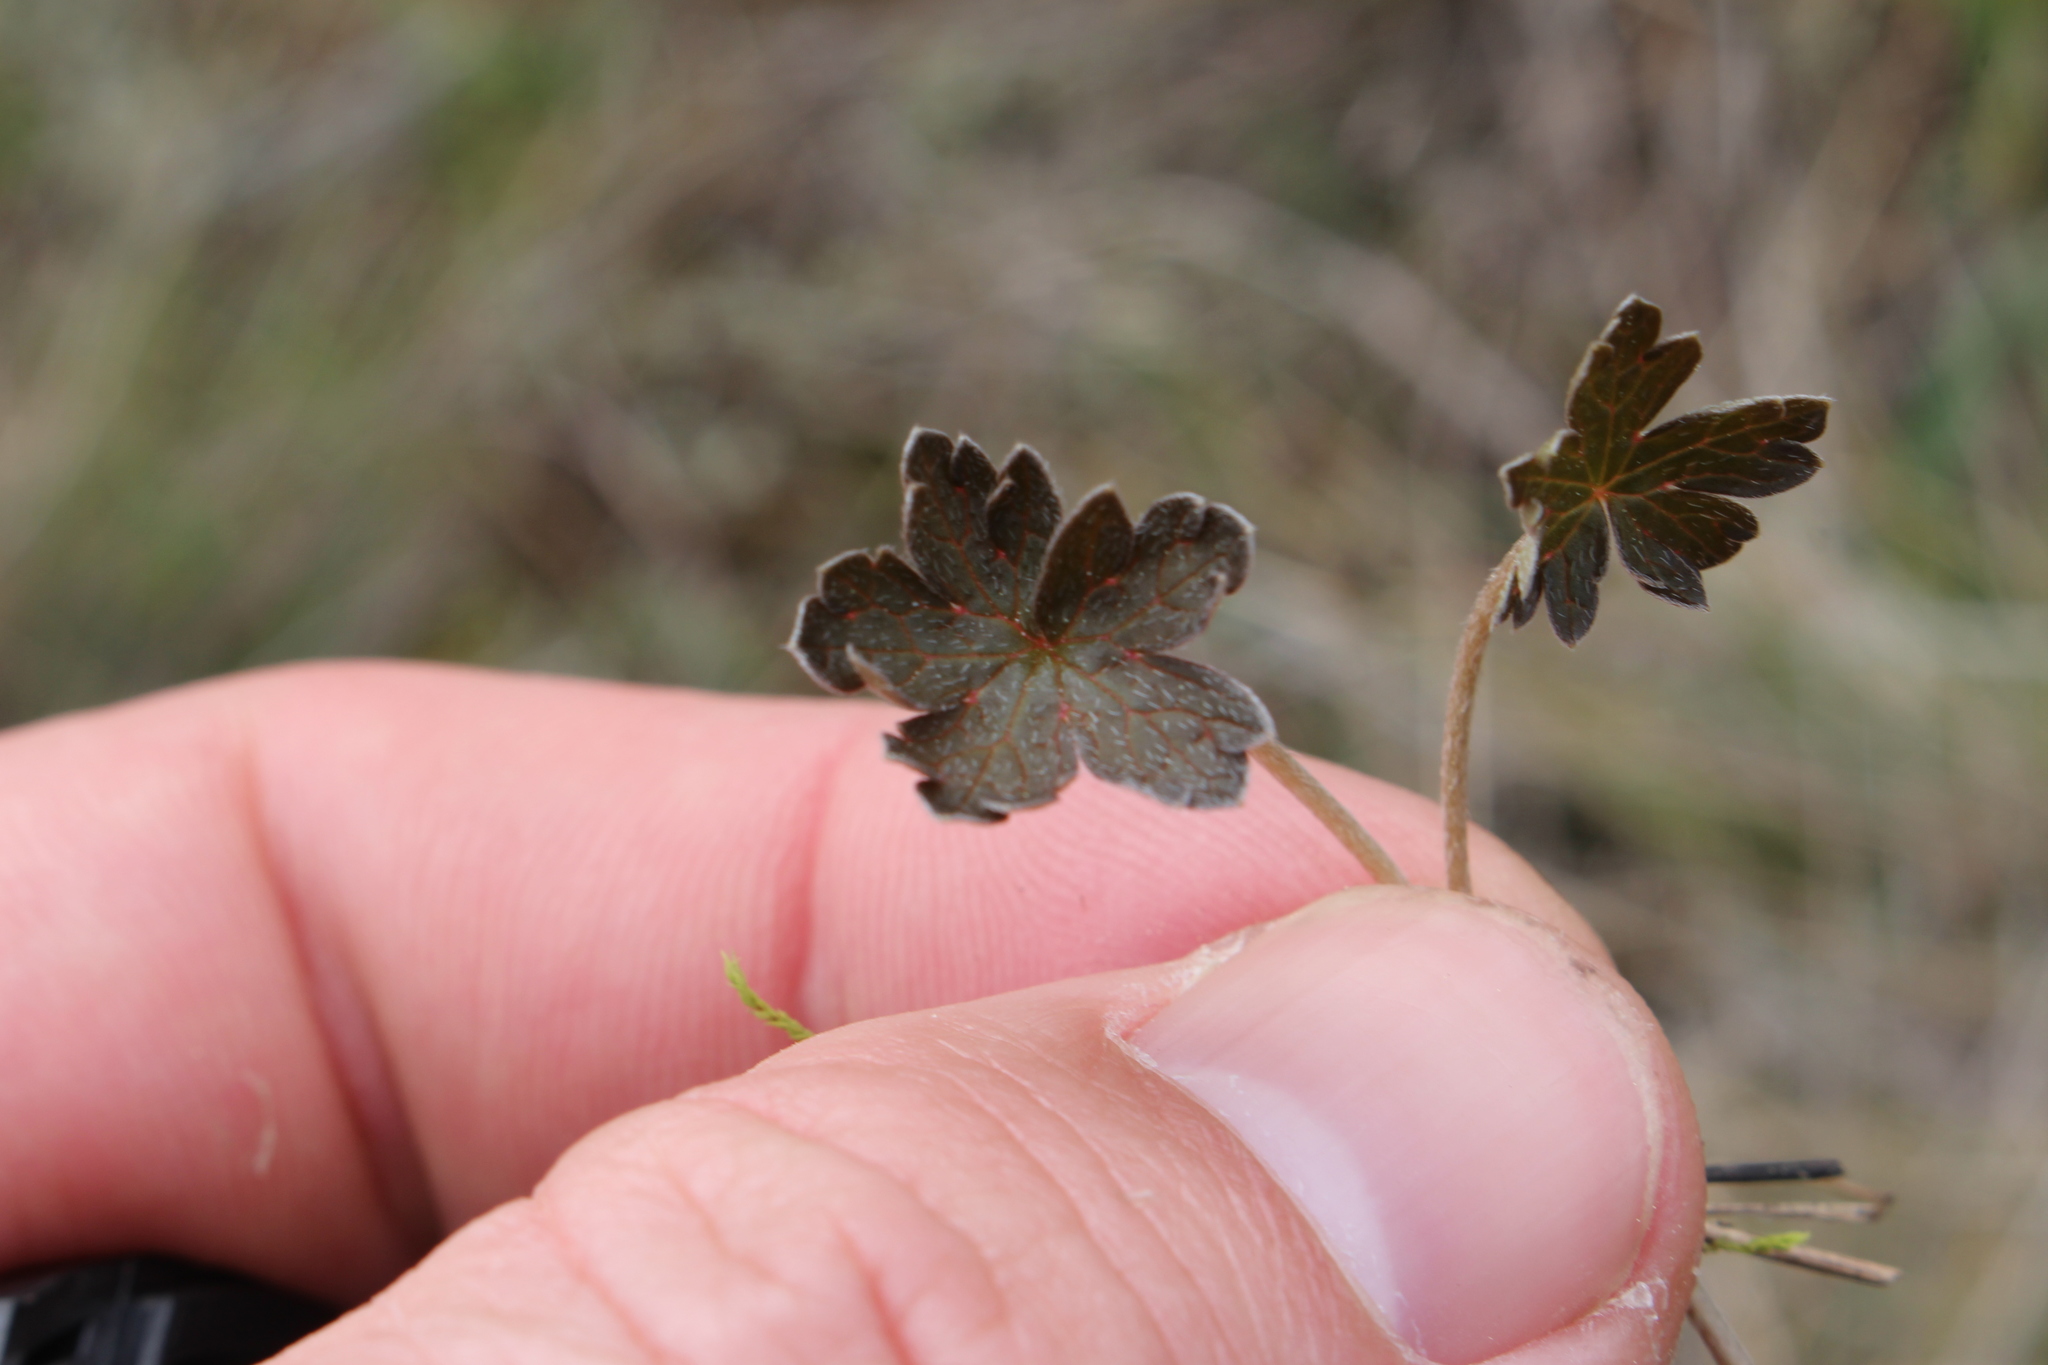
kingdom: Plantae
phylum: Tracheophyta
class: Magnoliopsida
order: Geraniales
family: Geraniaceae
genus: Geranium
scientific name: Geranium brevicaule
